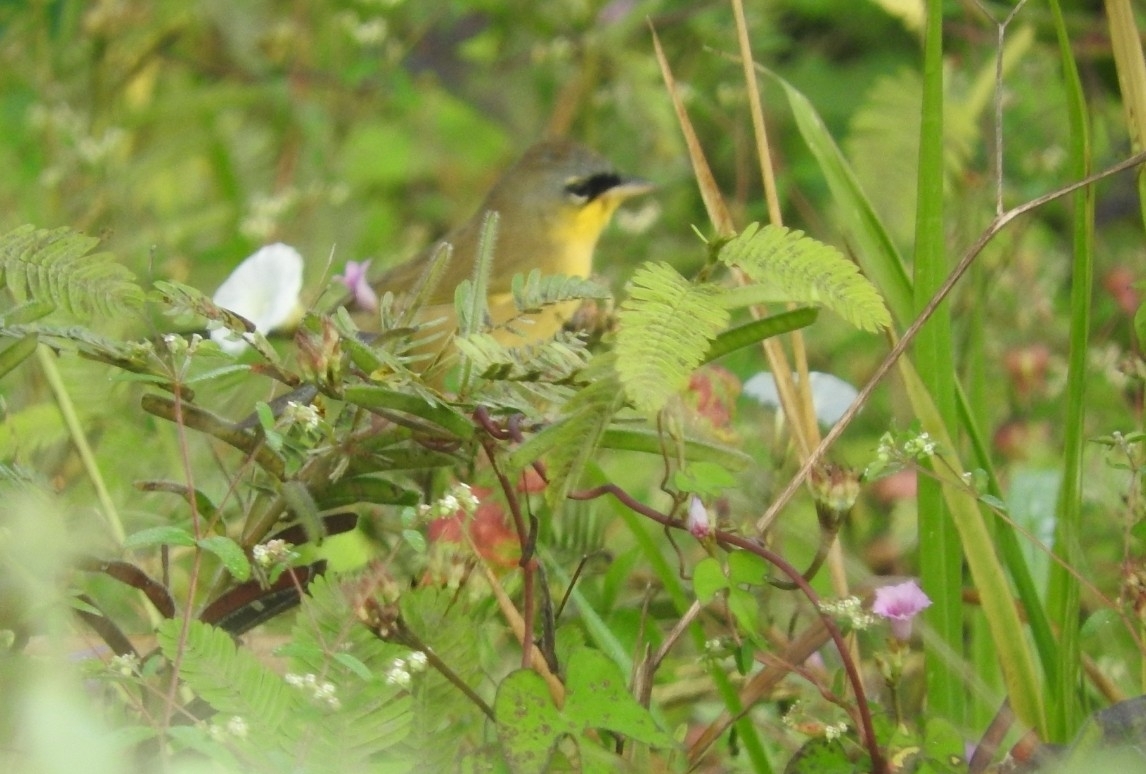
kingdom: Animalia
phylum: Chordata
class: Aves
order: Passeriformes
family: Parulidae
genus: Geothlypis
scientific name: Geothlypis poliocephala
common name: Gray-crowned yellowthroat
